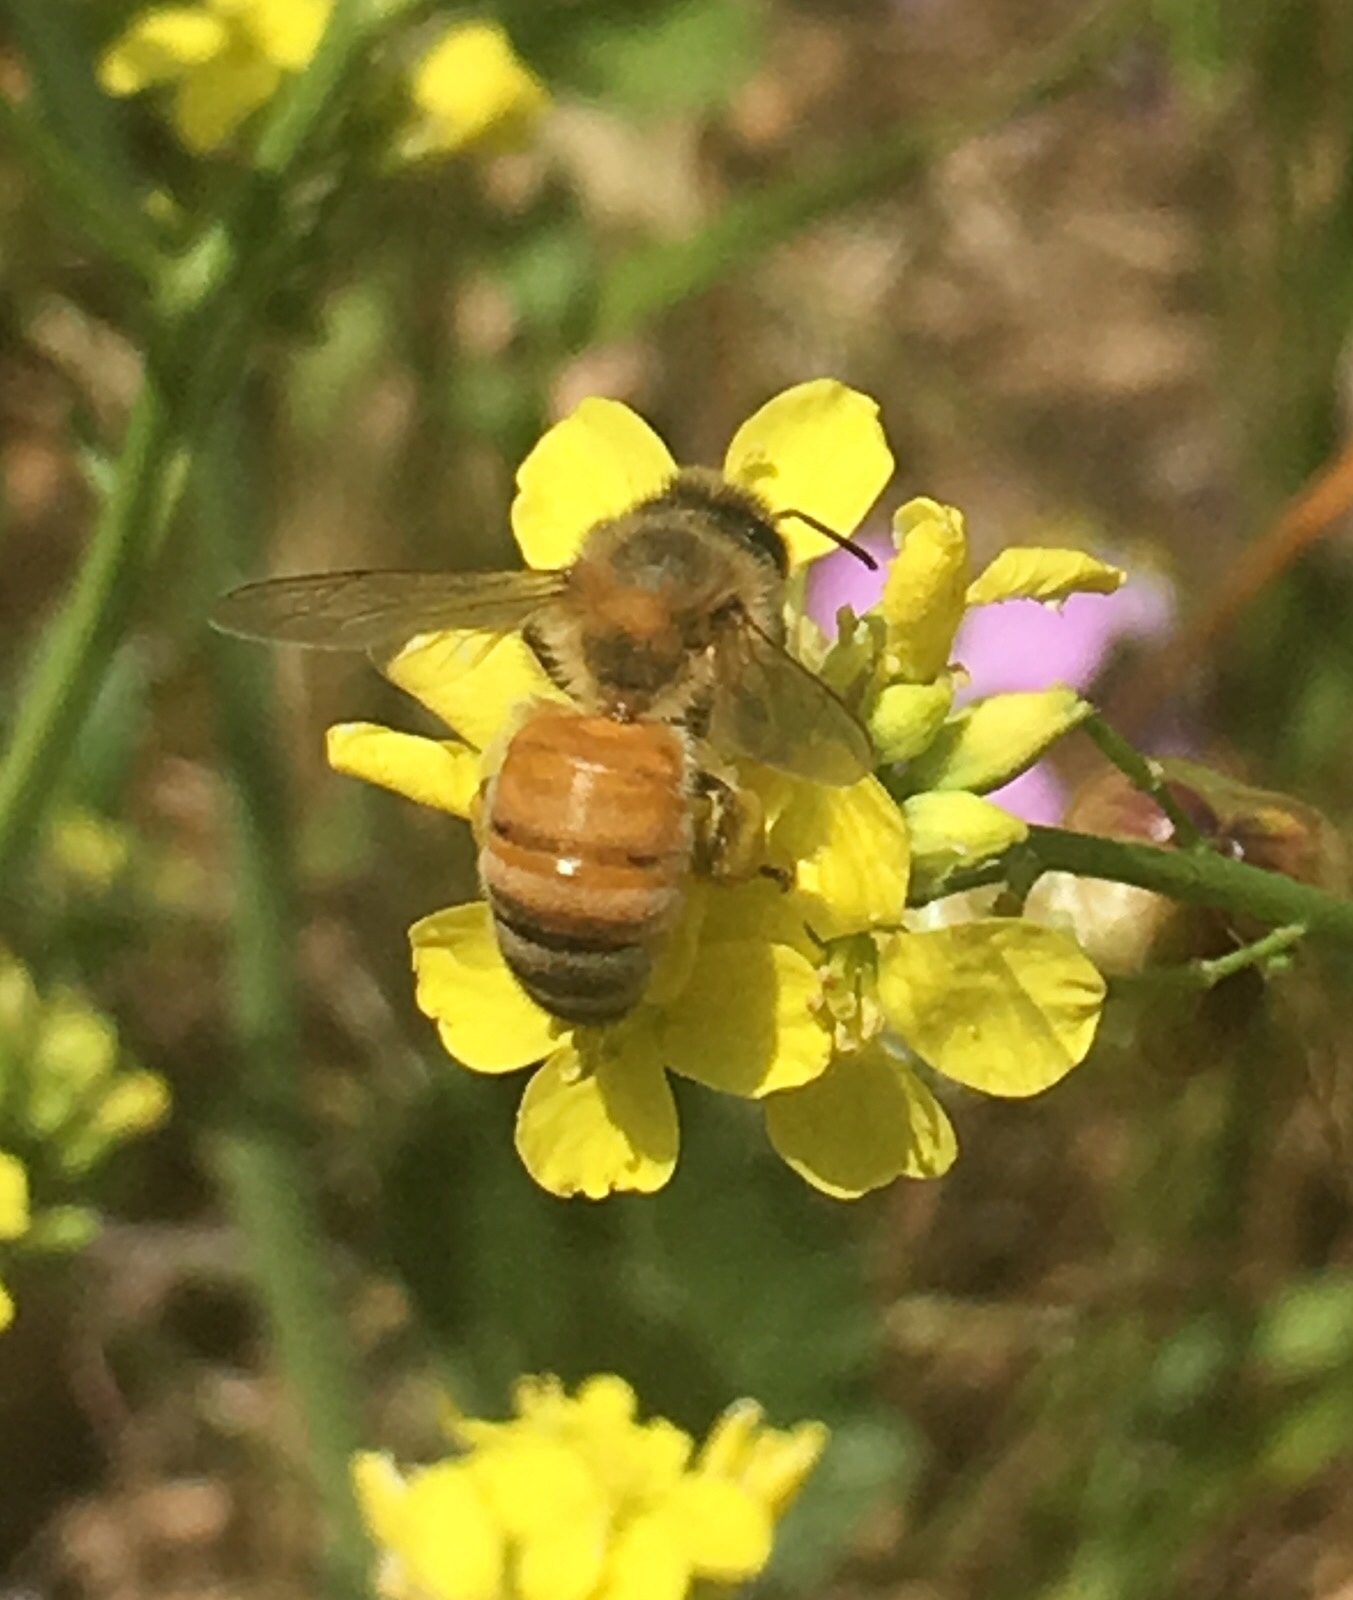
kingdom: Animalia
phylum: Arthropoda
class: Insecta
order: Hymenoptera
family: Apidae
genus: Apis
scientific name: Apis mellifera
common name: Honey bee
